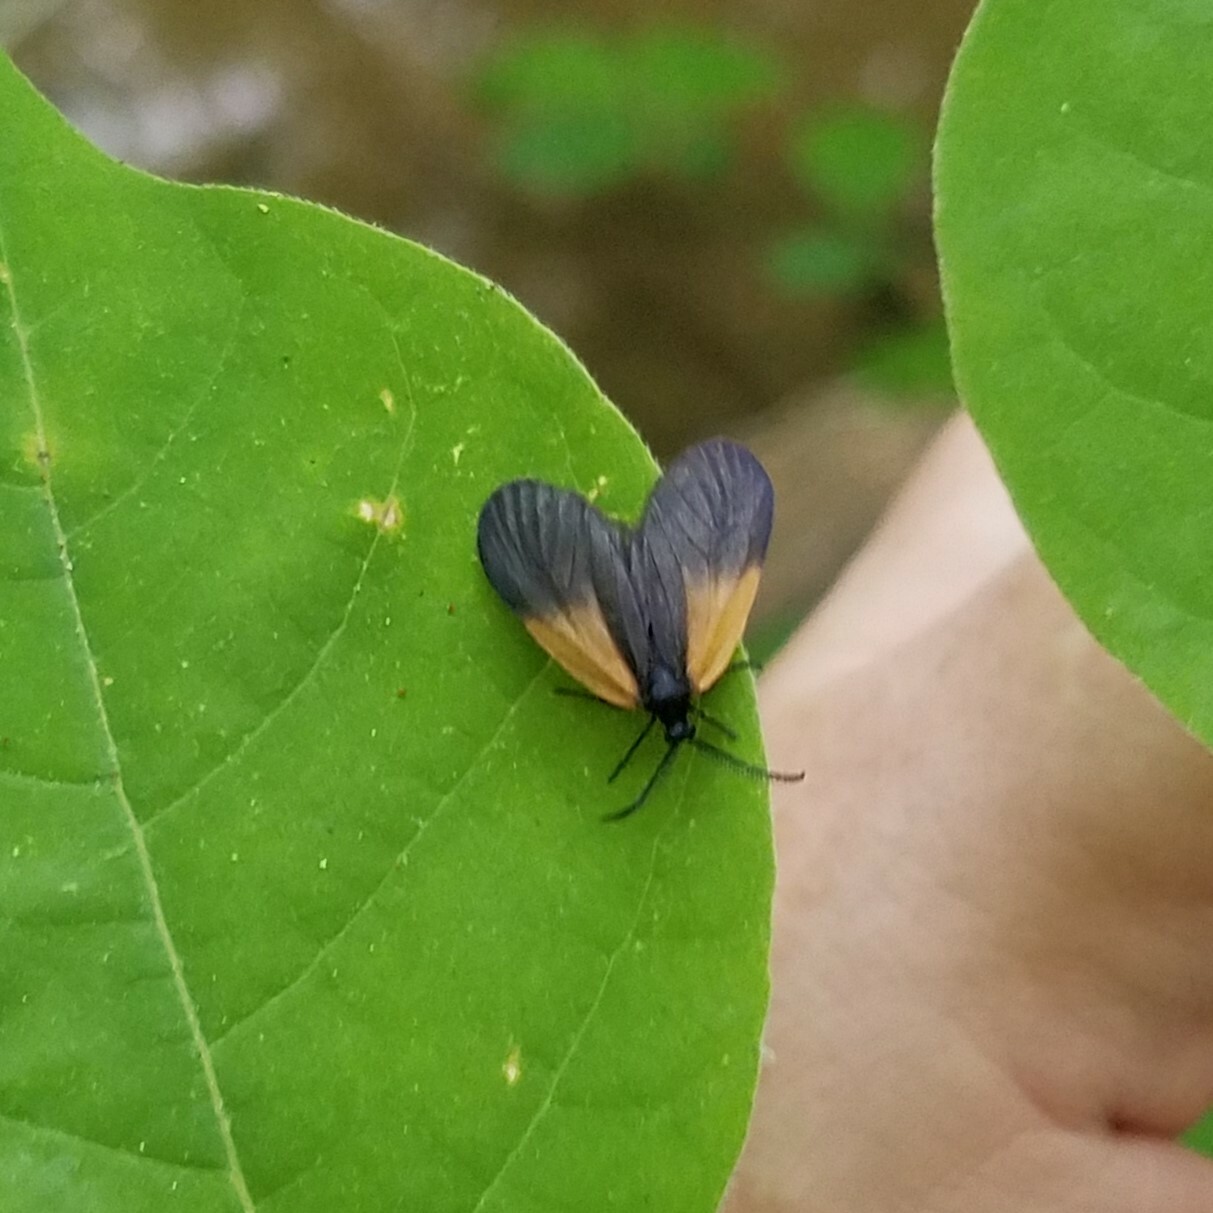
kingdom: Animalia
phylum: Arthropoda
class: Insecta
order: Lepidoptera
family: Zygaenidae
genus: Malthaca
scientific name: Malthaca dimidiata
